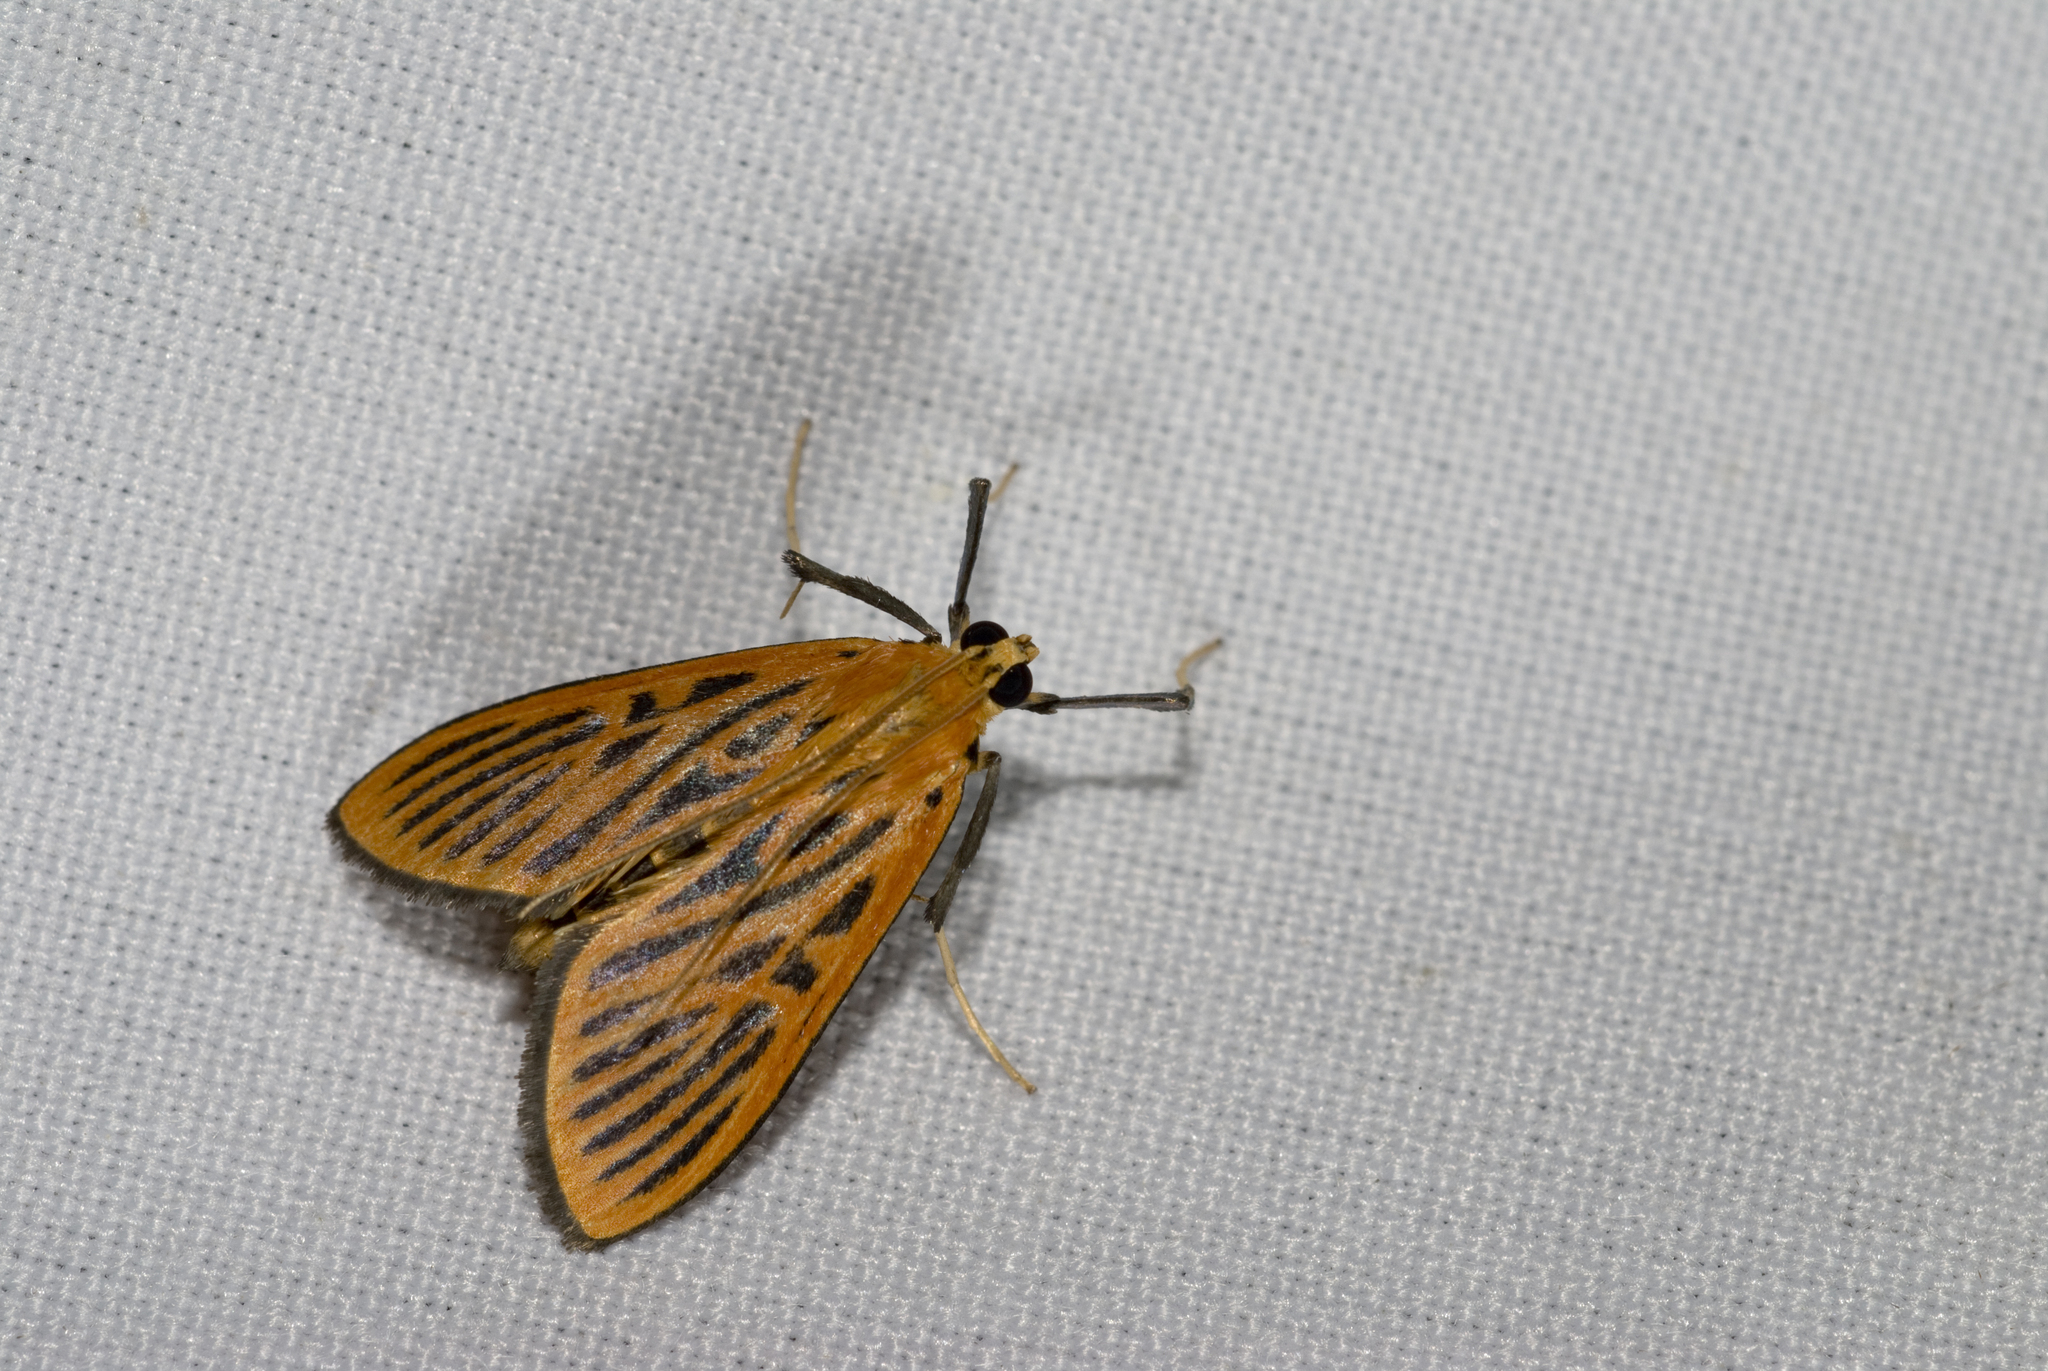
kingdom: Animalia
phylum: Arthropoda
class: Insecta
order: Lepidoptera
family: Crambidae
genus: Tyspanodes
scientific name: Tyspanodes striata
